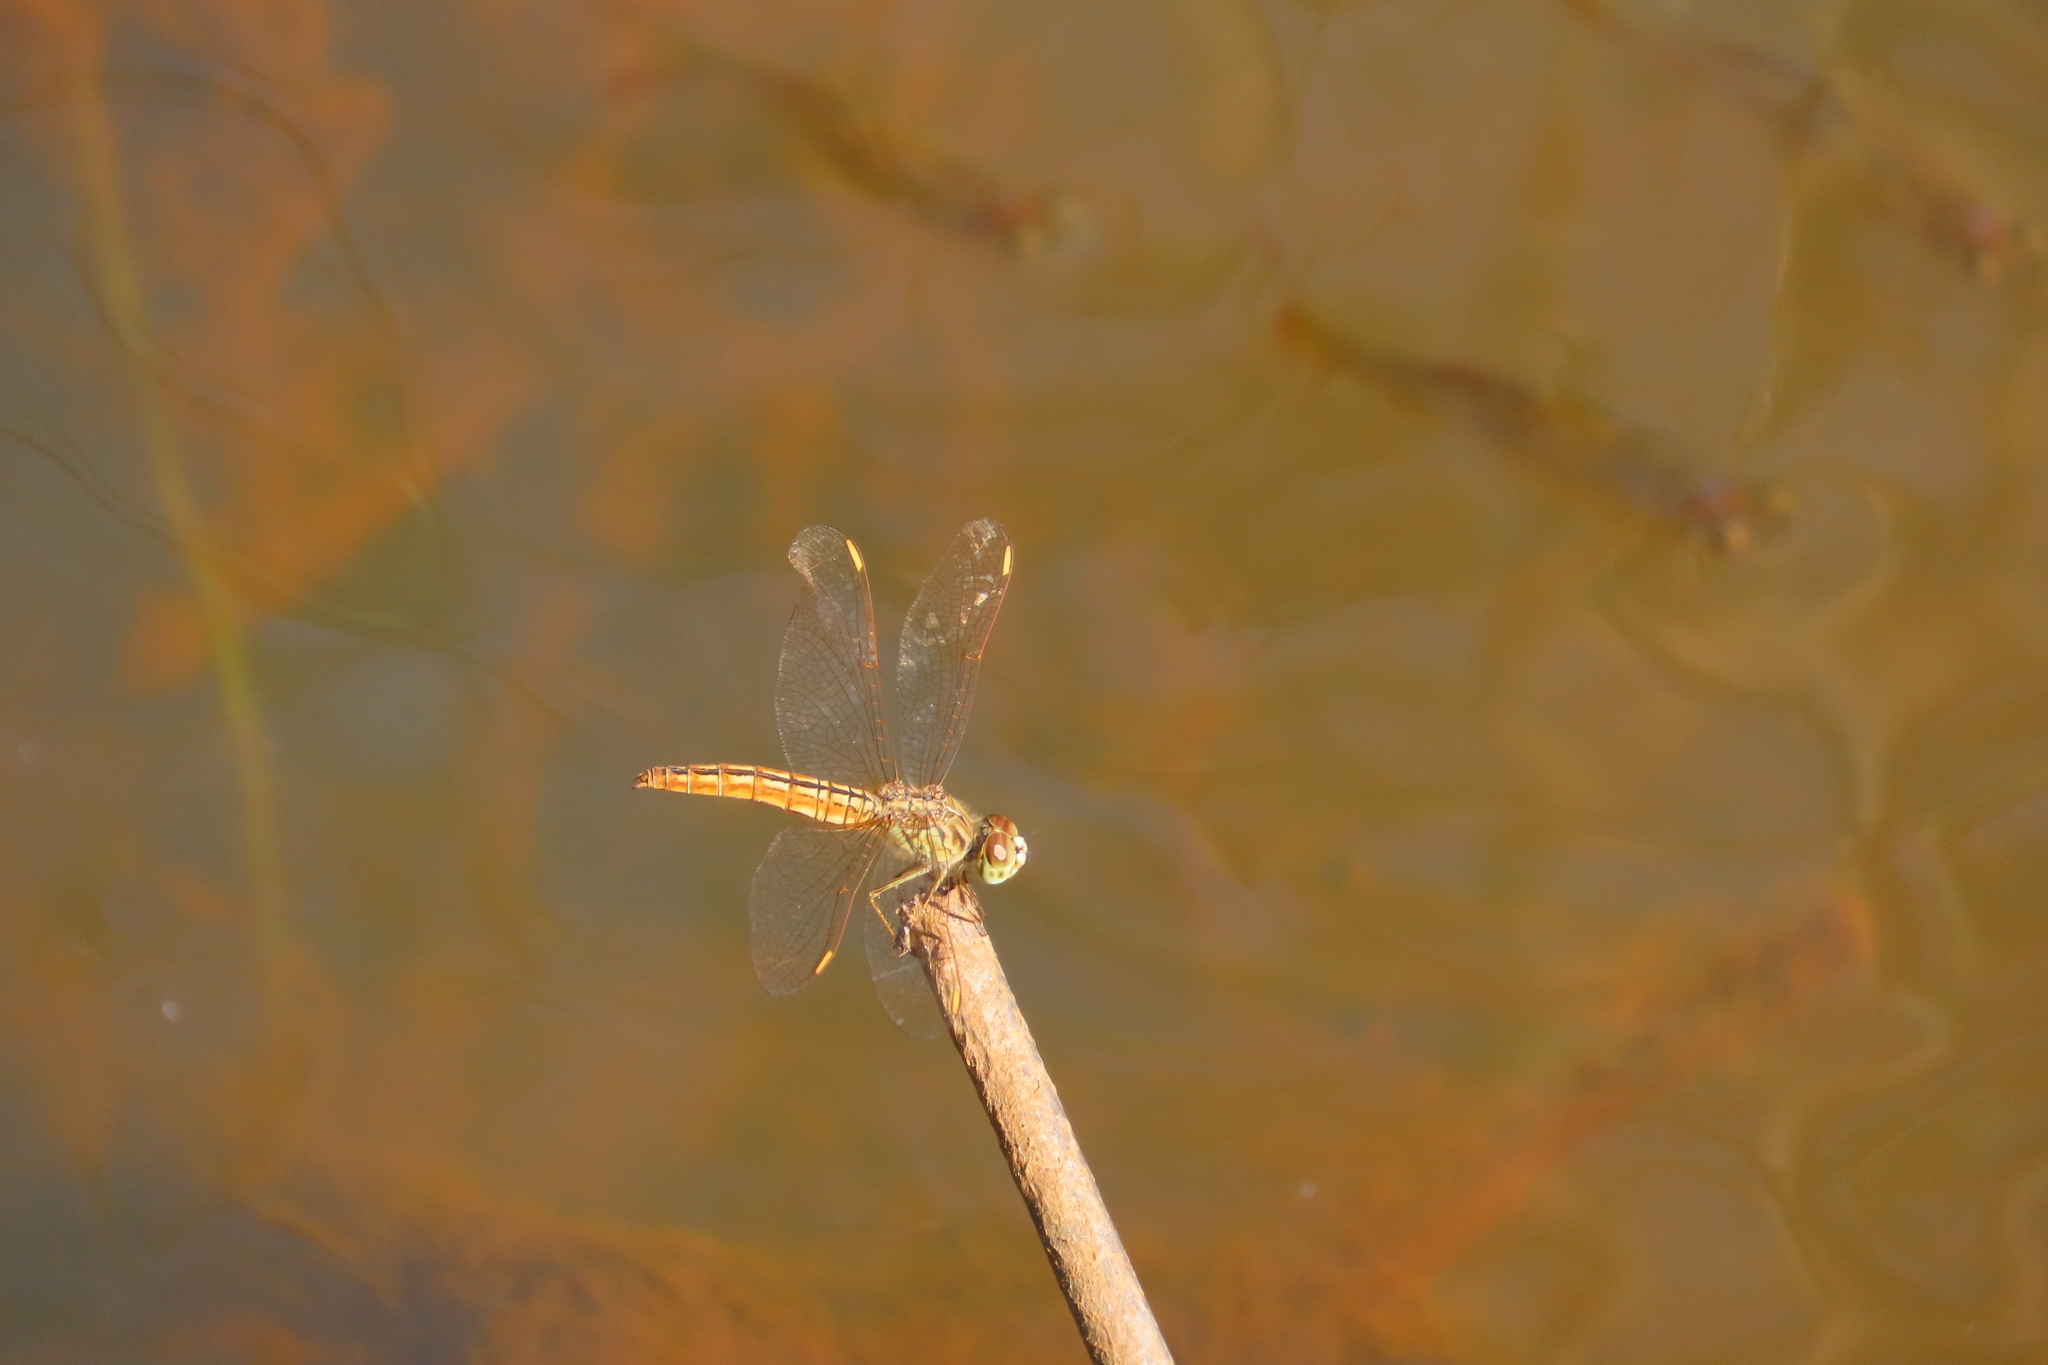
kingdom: Animalia
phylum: Arthropoda
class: Insecta
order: Odonata
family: Libellulidae
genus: Brachythemis
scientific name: Brachythemis contaminata
